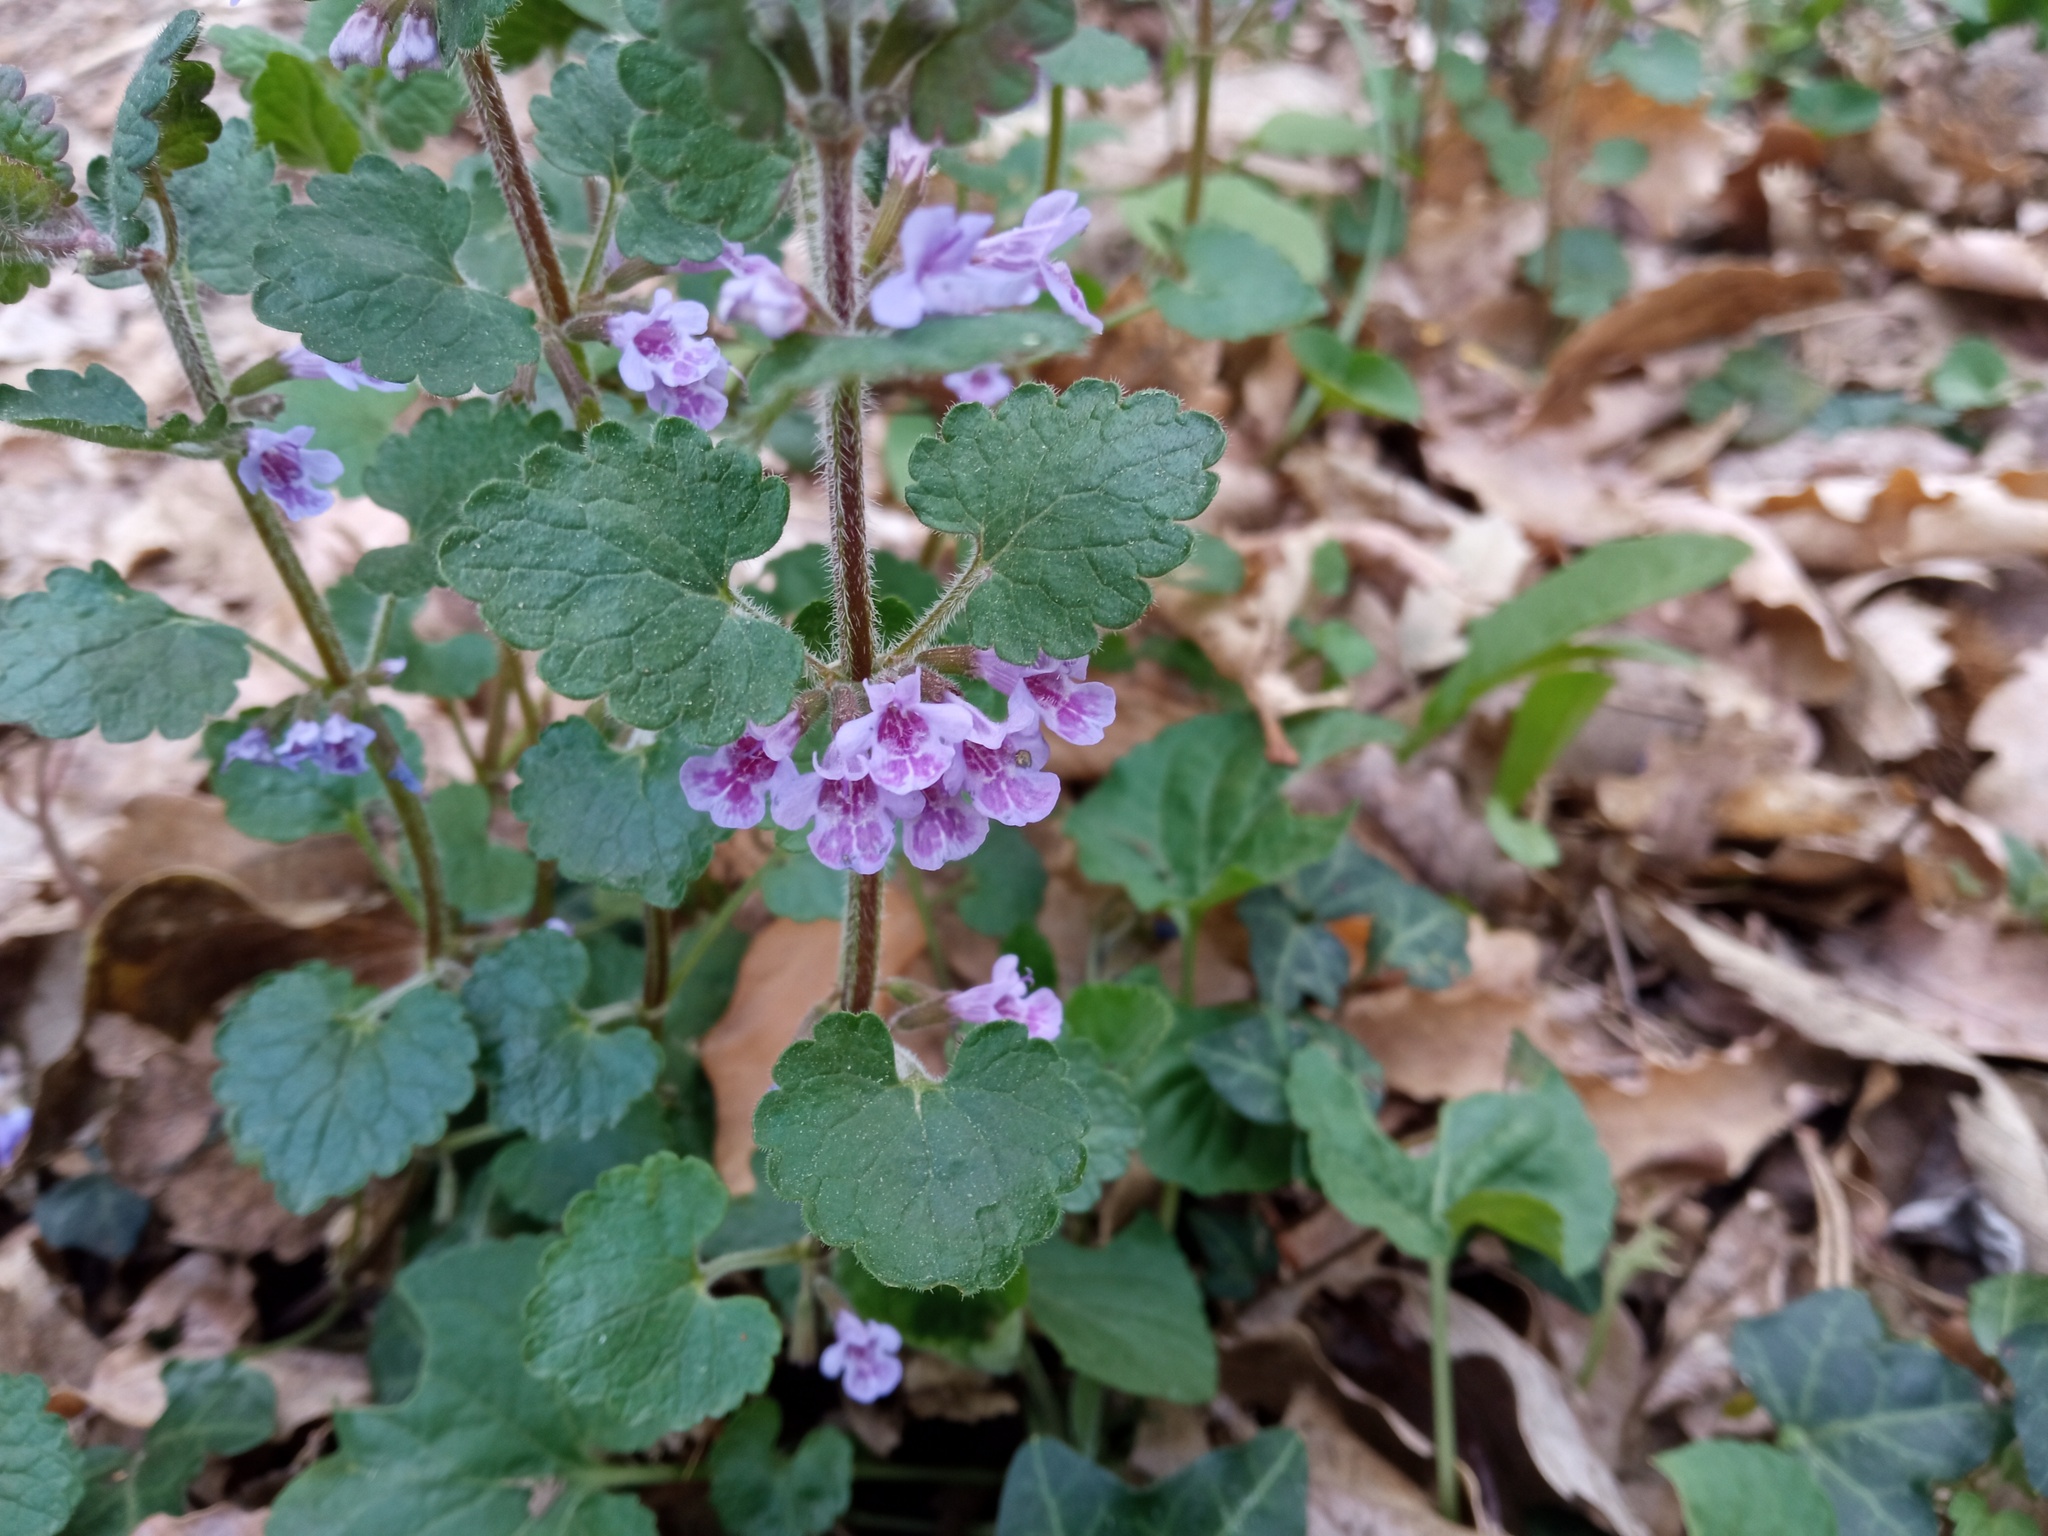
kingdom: Plantae
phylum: Tracheophyta
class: Magnoliopsida
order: Lamiales
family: Lamiaceae
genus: Glechoma
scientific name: Glechoma hederacea
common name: Ground ivy
